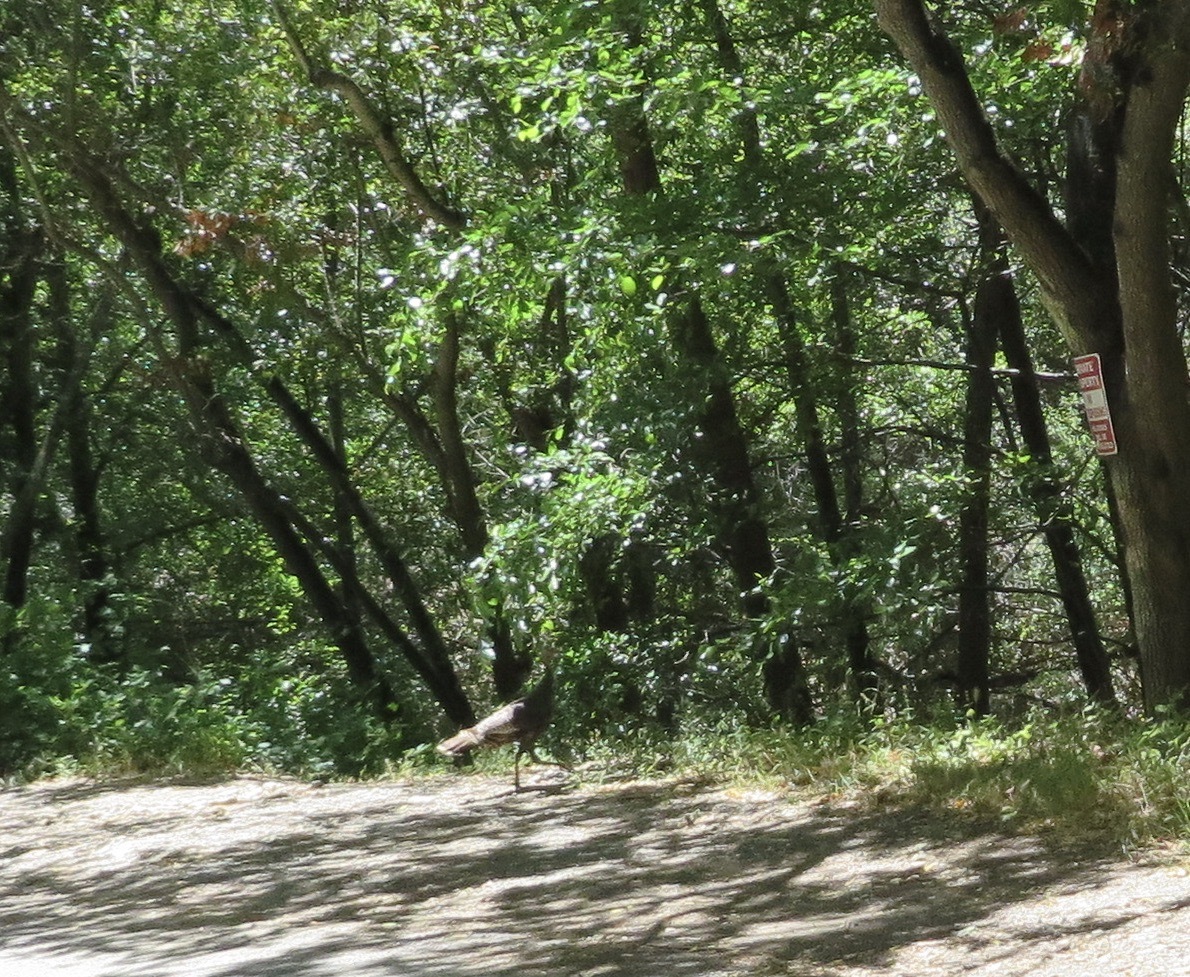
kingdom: Animalia
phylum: Chordata
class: Aves
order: Galliformes
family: Phasianidae
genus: Meleagris
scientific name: Meleagris gallopavo
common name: Wild turkey
